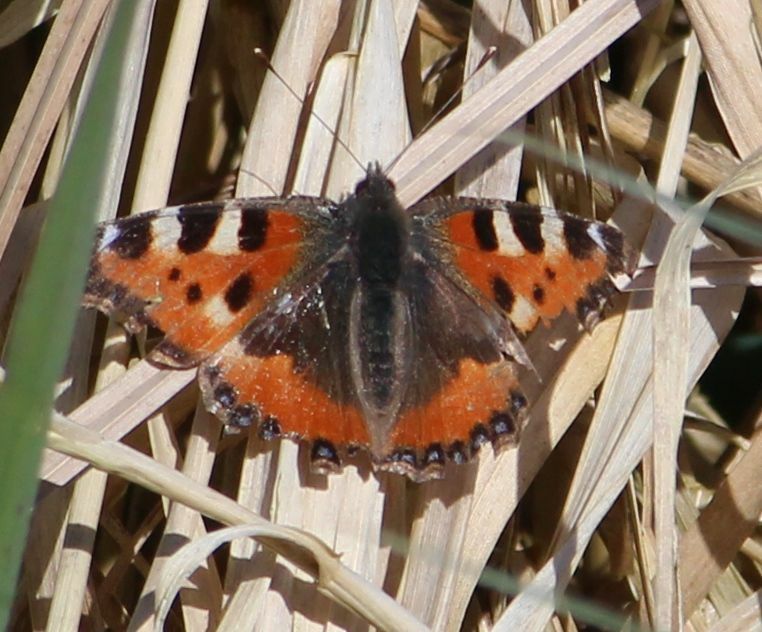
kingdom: Animalia
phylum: Arthropoda
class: Insecta
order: Lepidoptera
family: Nymphalidae
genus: Aglais
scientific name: Aglais urticae
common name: Small tortoiseshell
